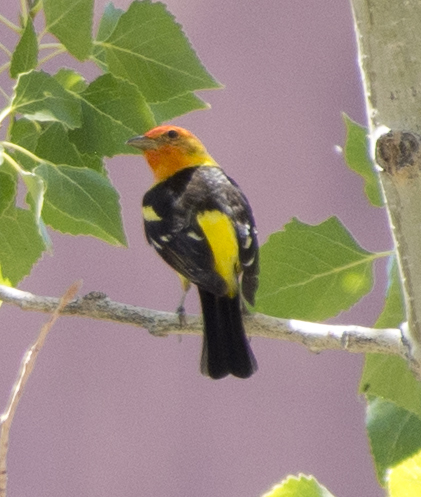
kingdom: Animalia
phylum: Chordata
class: Aves
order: Passeriformes
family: Cardinalidae
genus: Piranga
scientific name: Piranga ludoviciana
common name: Western tanager
